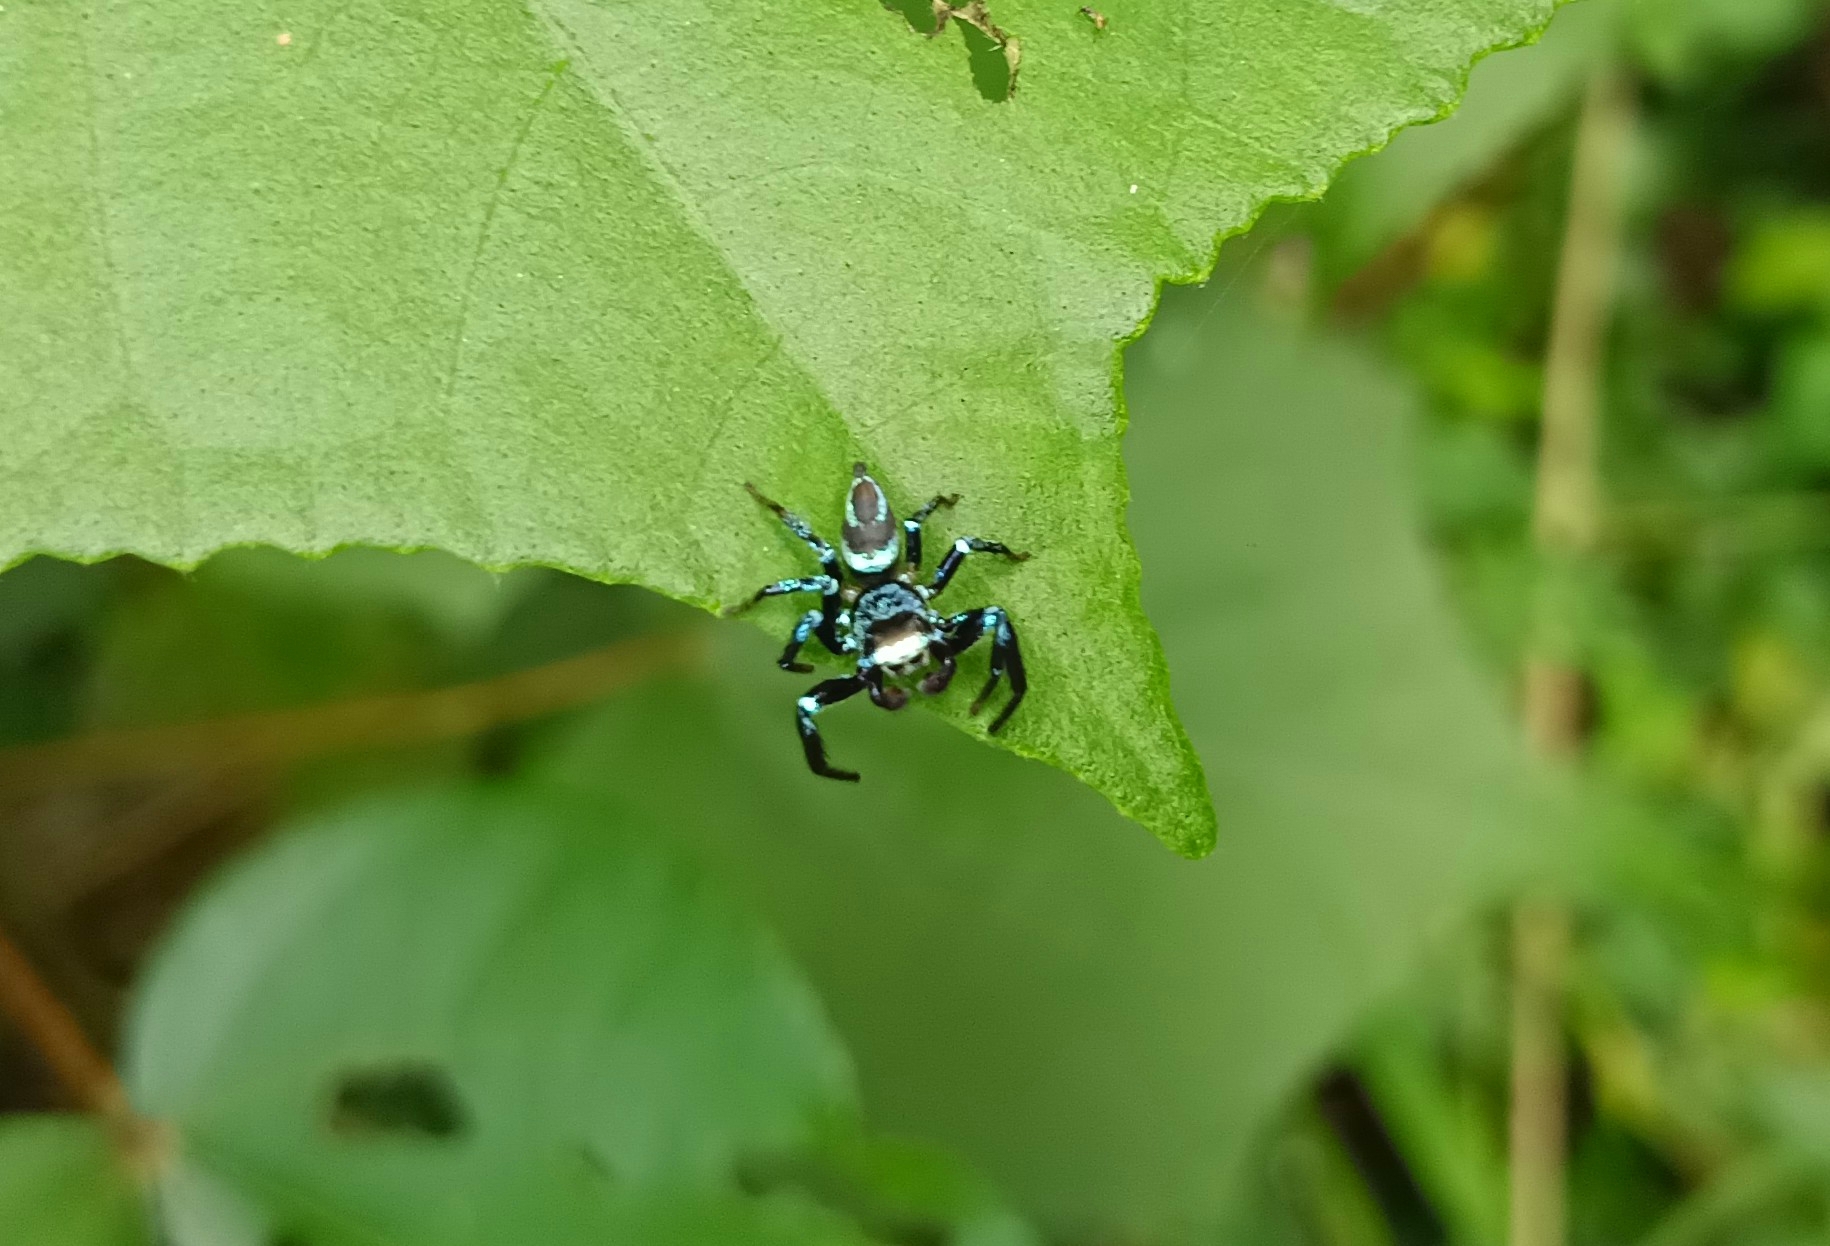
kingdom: Animalia
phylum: Arthropoda
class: Arachnida
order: Araneae
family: Salticidae
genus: Thiania
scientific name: Thiania bhamoensis
